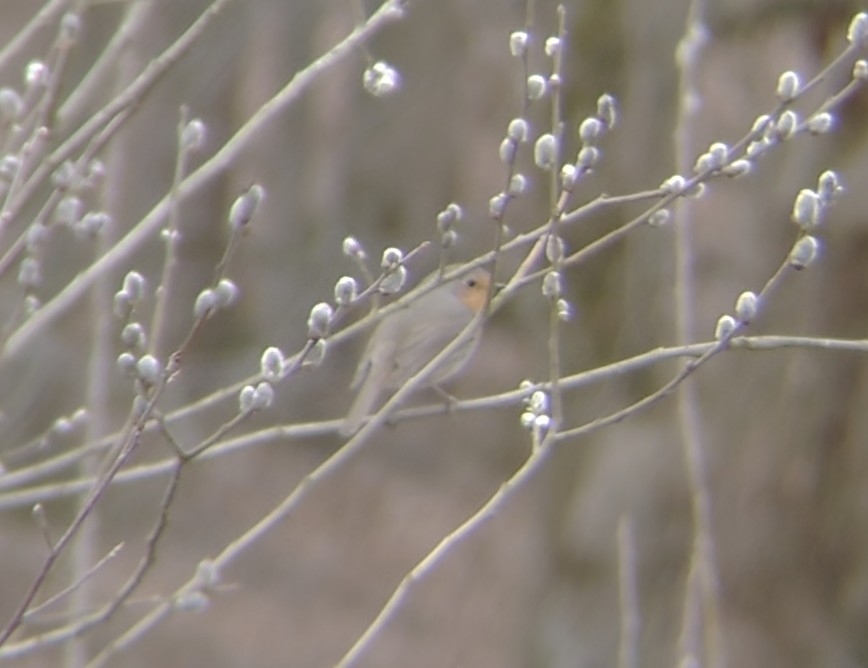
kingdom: Animalia
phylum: Chordata
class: Aves
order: Passeriformes
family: Muscicapidae
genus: Erithacus
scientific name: Erithacus rubecula
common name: European robin
